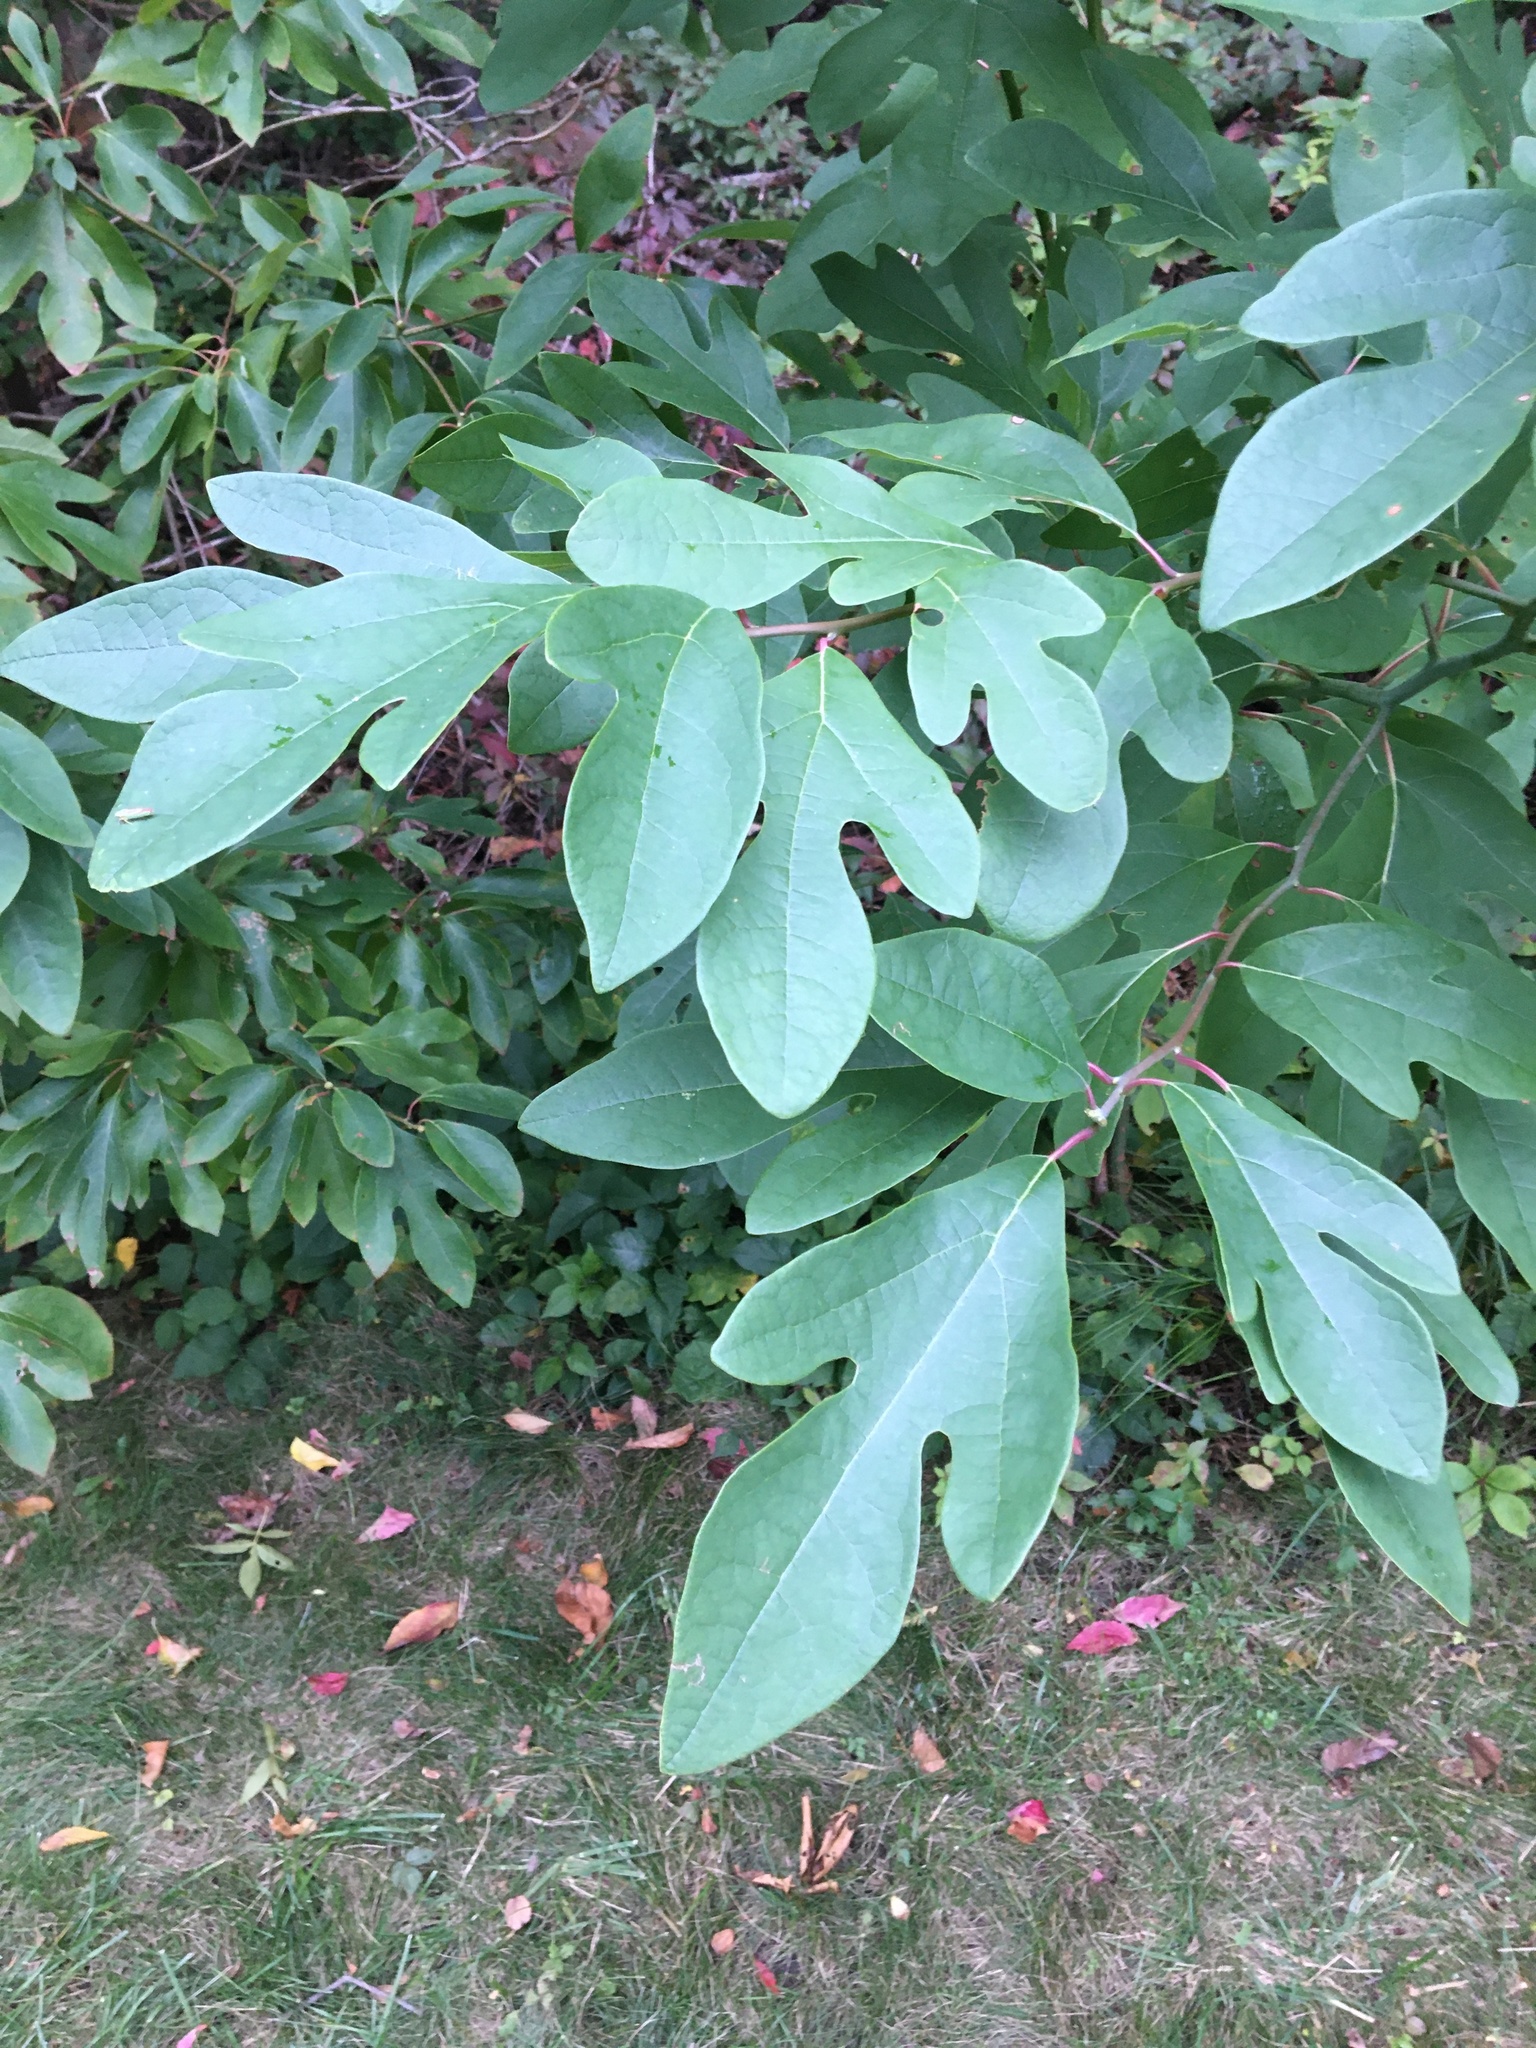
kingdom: Plantae
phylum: Tracheophyta
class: Magnoliopsida
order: Laurales
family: Lauraceae
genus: Sassafras
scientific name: Sassafras albidum
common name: Sassafras
